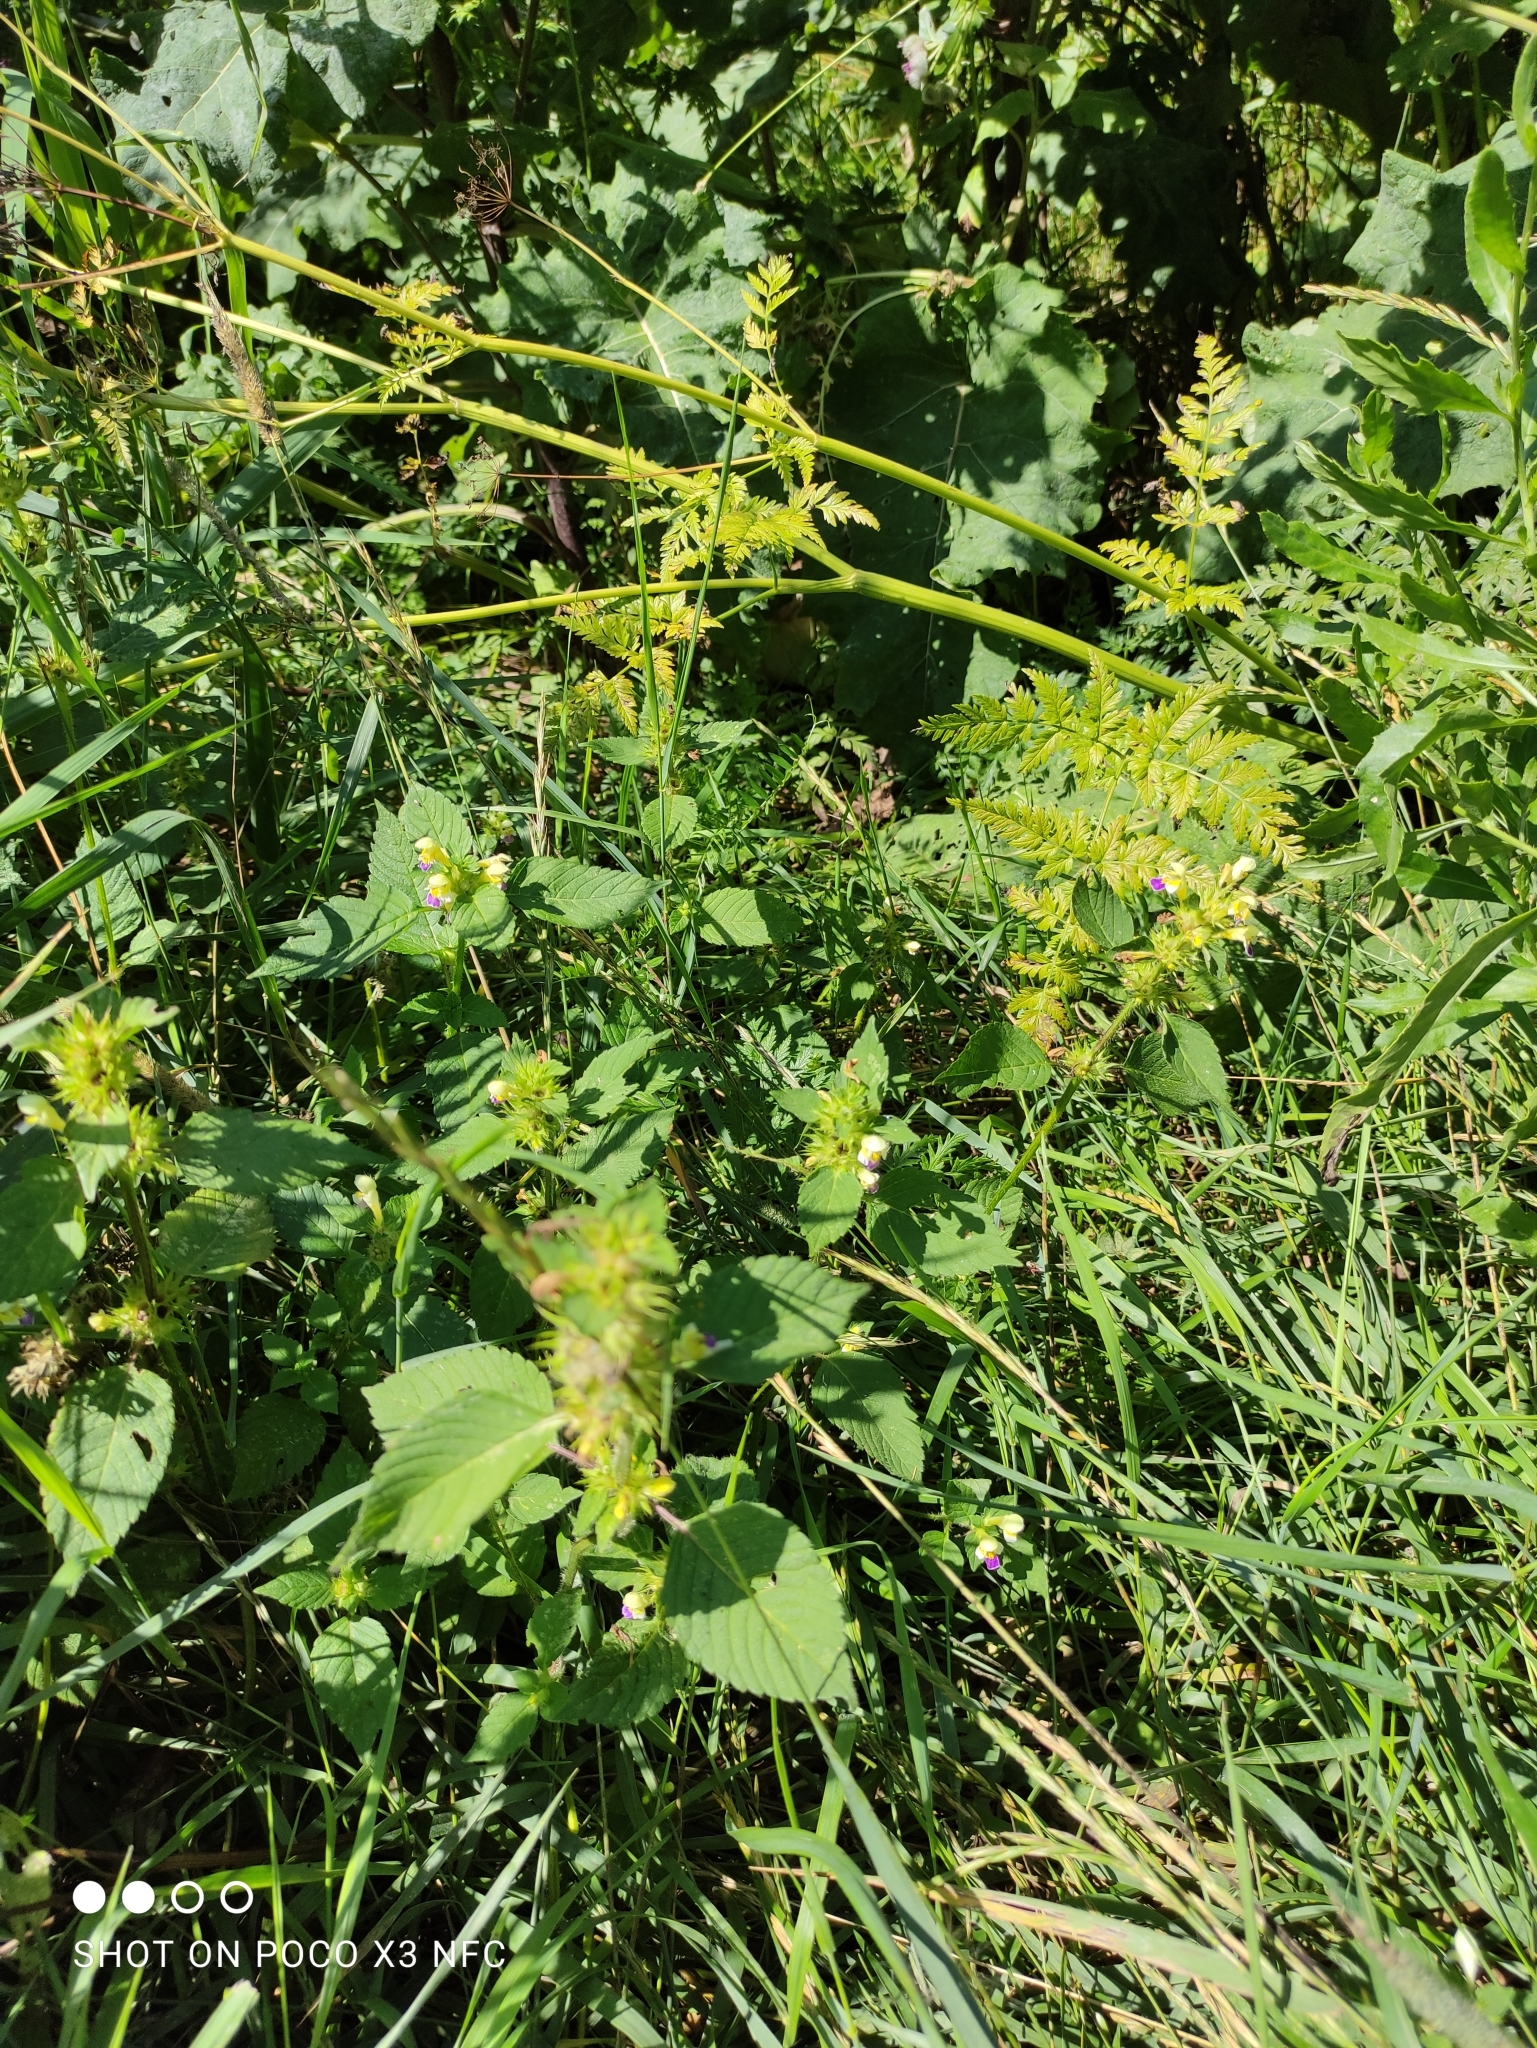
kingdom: Plantae
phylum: Tracheophyta
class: Magnoliopsida
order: Lamiales
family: Lamiaceae
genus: Galeopsis
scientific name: Galeopsis speciosa
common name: Large-flowered hemp-nettle
